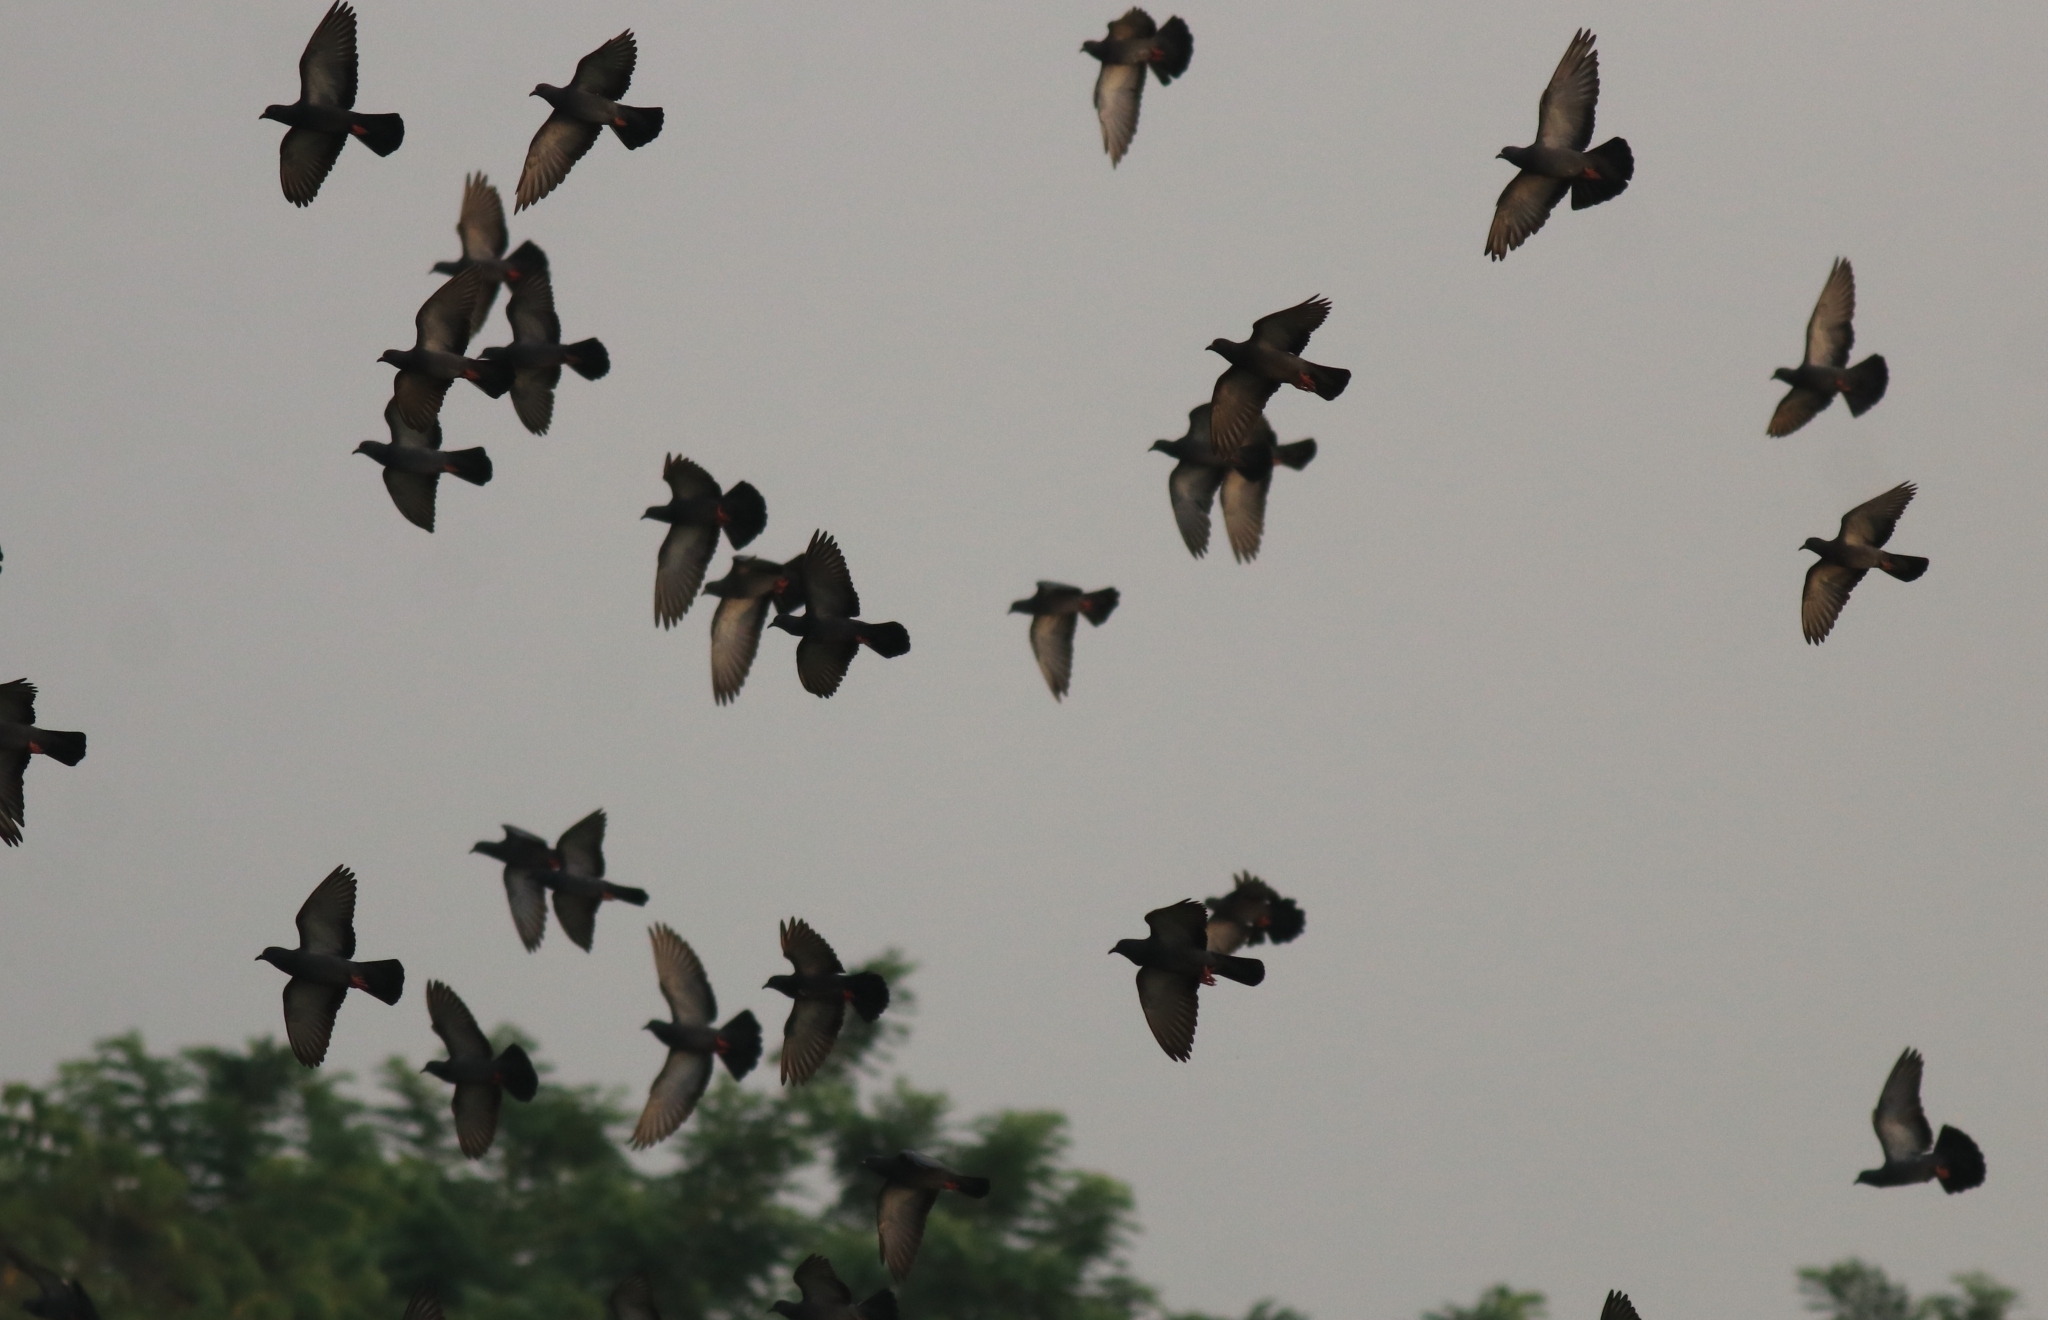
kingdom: Animalia
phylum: Chordata
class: Aves
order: Columbiformes
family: Columbidae
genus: Columba
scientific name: Columba livia
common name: Rock pigeon
